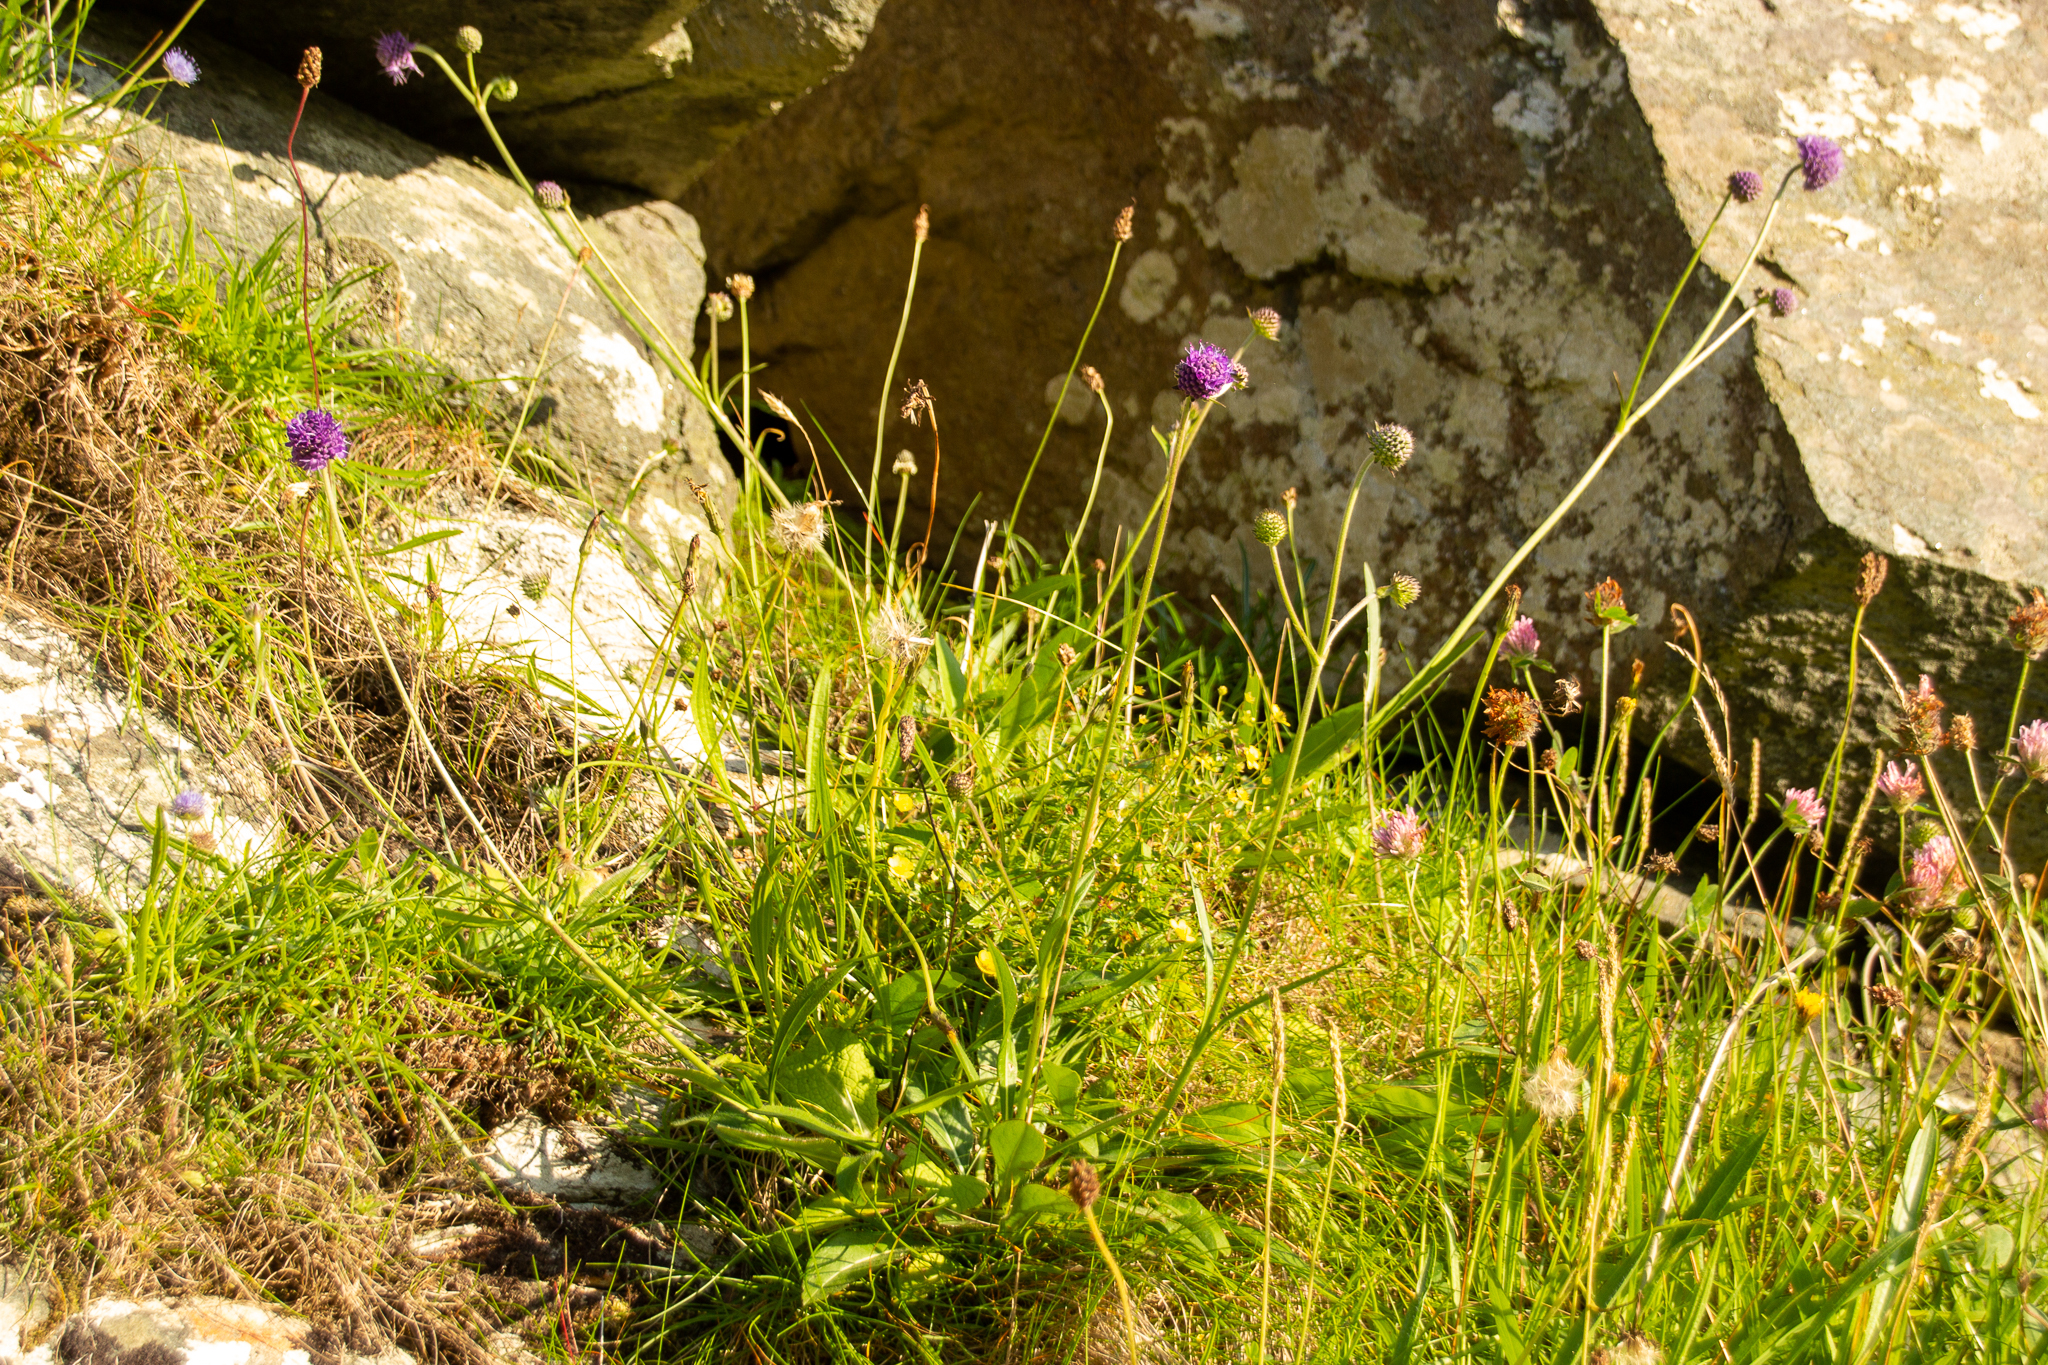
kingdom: Plantae
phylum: Tracheophyta
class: Magnoliopsida
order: Dipsacales
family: Caprifoliaceae
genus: Succisa
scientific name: Succisa pratensis
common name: Devil's-bit
